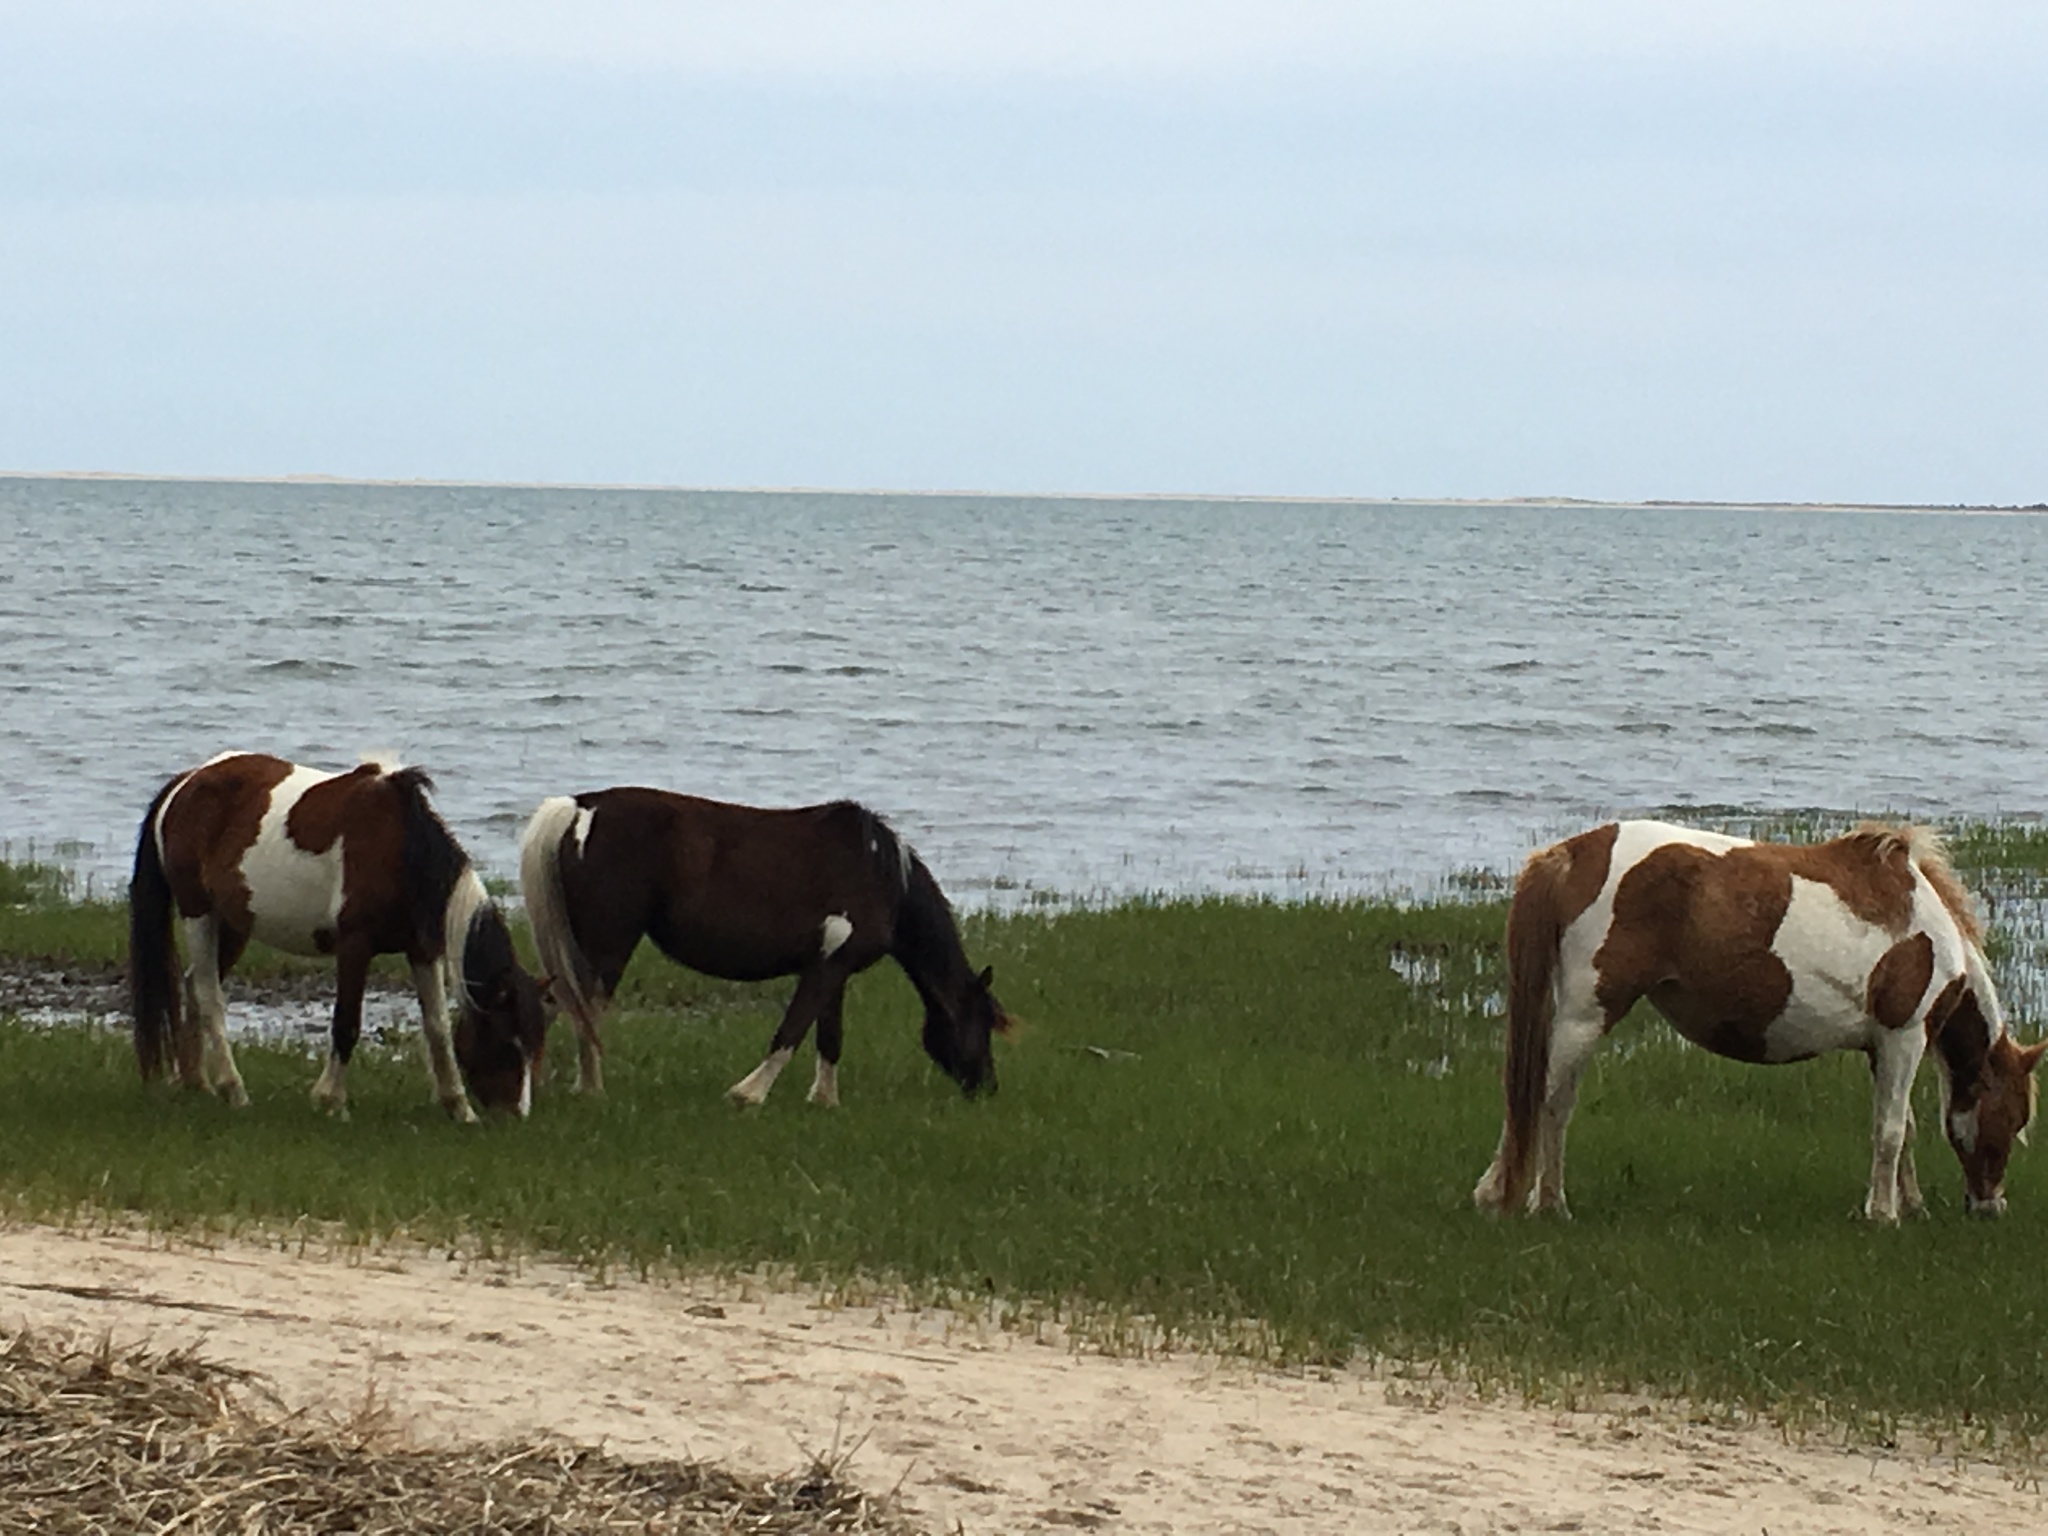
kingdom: Animalia
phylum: Chordata
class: Mammalia
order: Perissodactyla
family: Equidae
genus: Equus
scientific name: Equus caballus
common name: Horse
